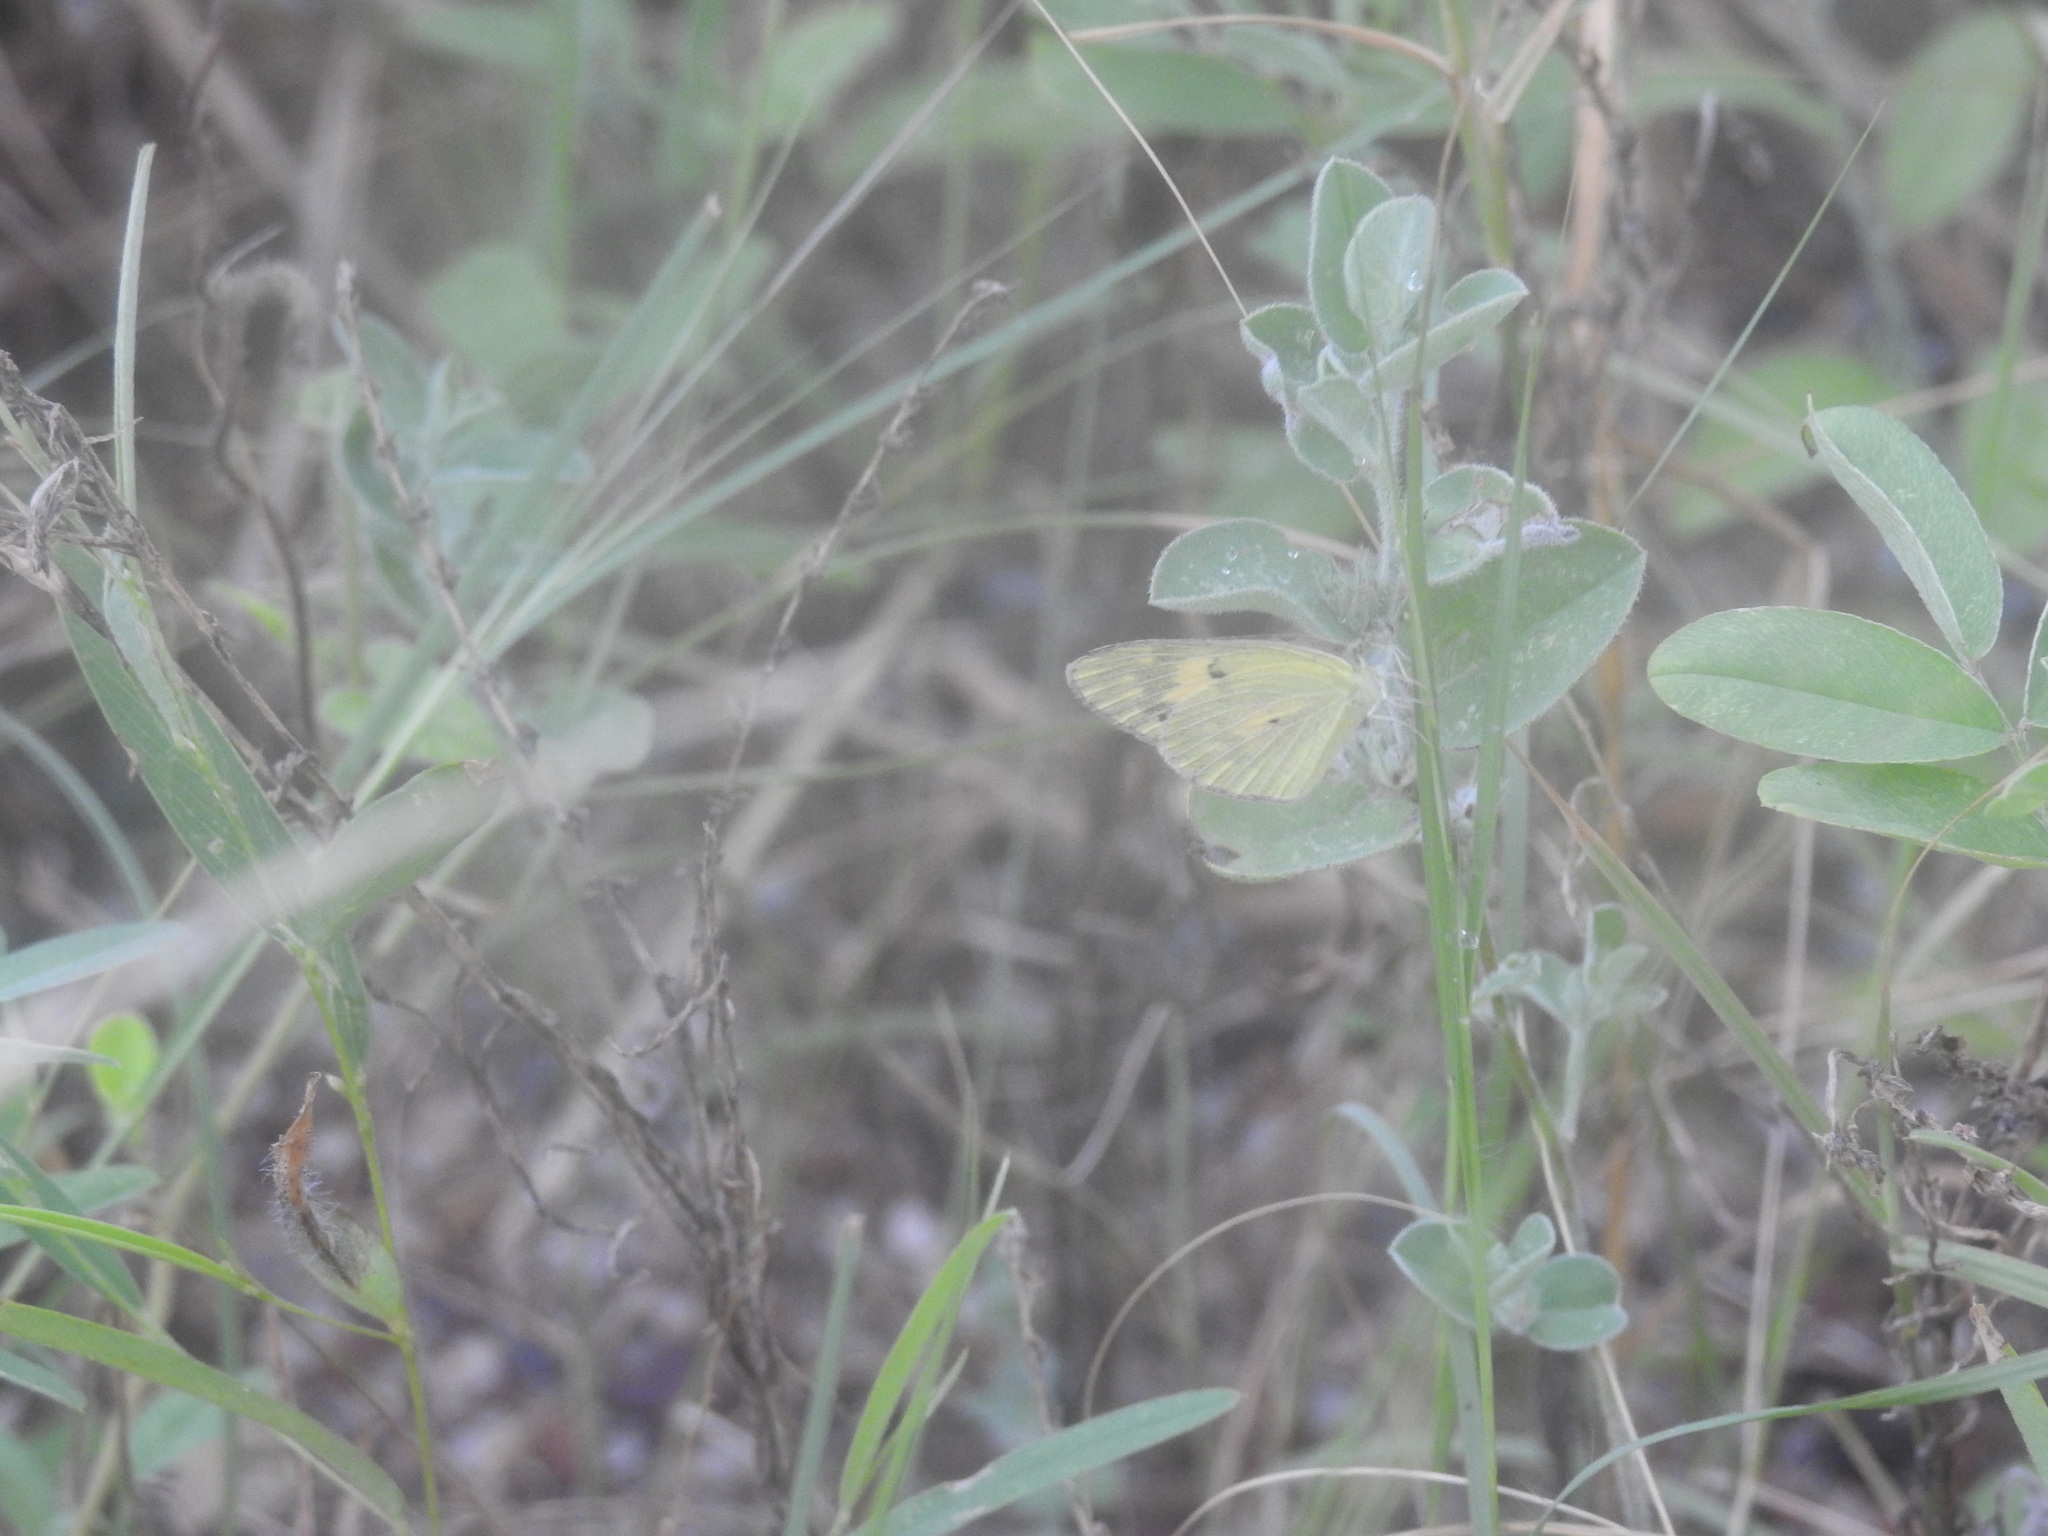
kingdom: Animalia
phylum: Arthropoda
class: Insecta
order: Lepidoptera
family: Pieridae
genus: Colotis
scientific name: Colotis amata
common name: Small salmon arab
